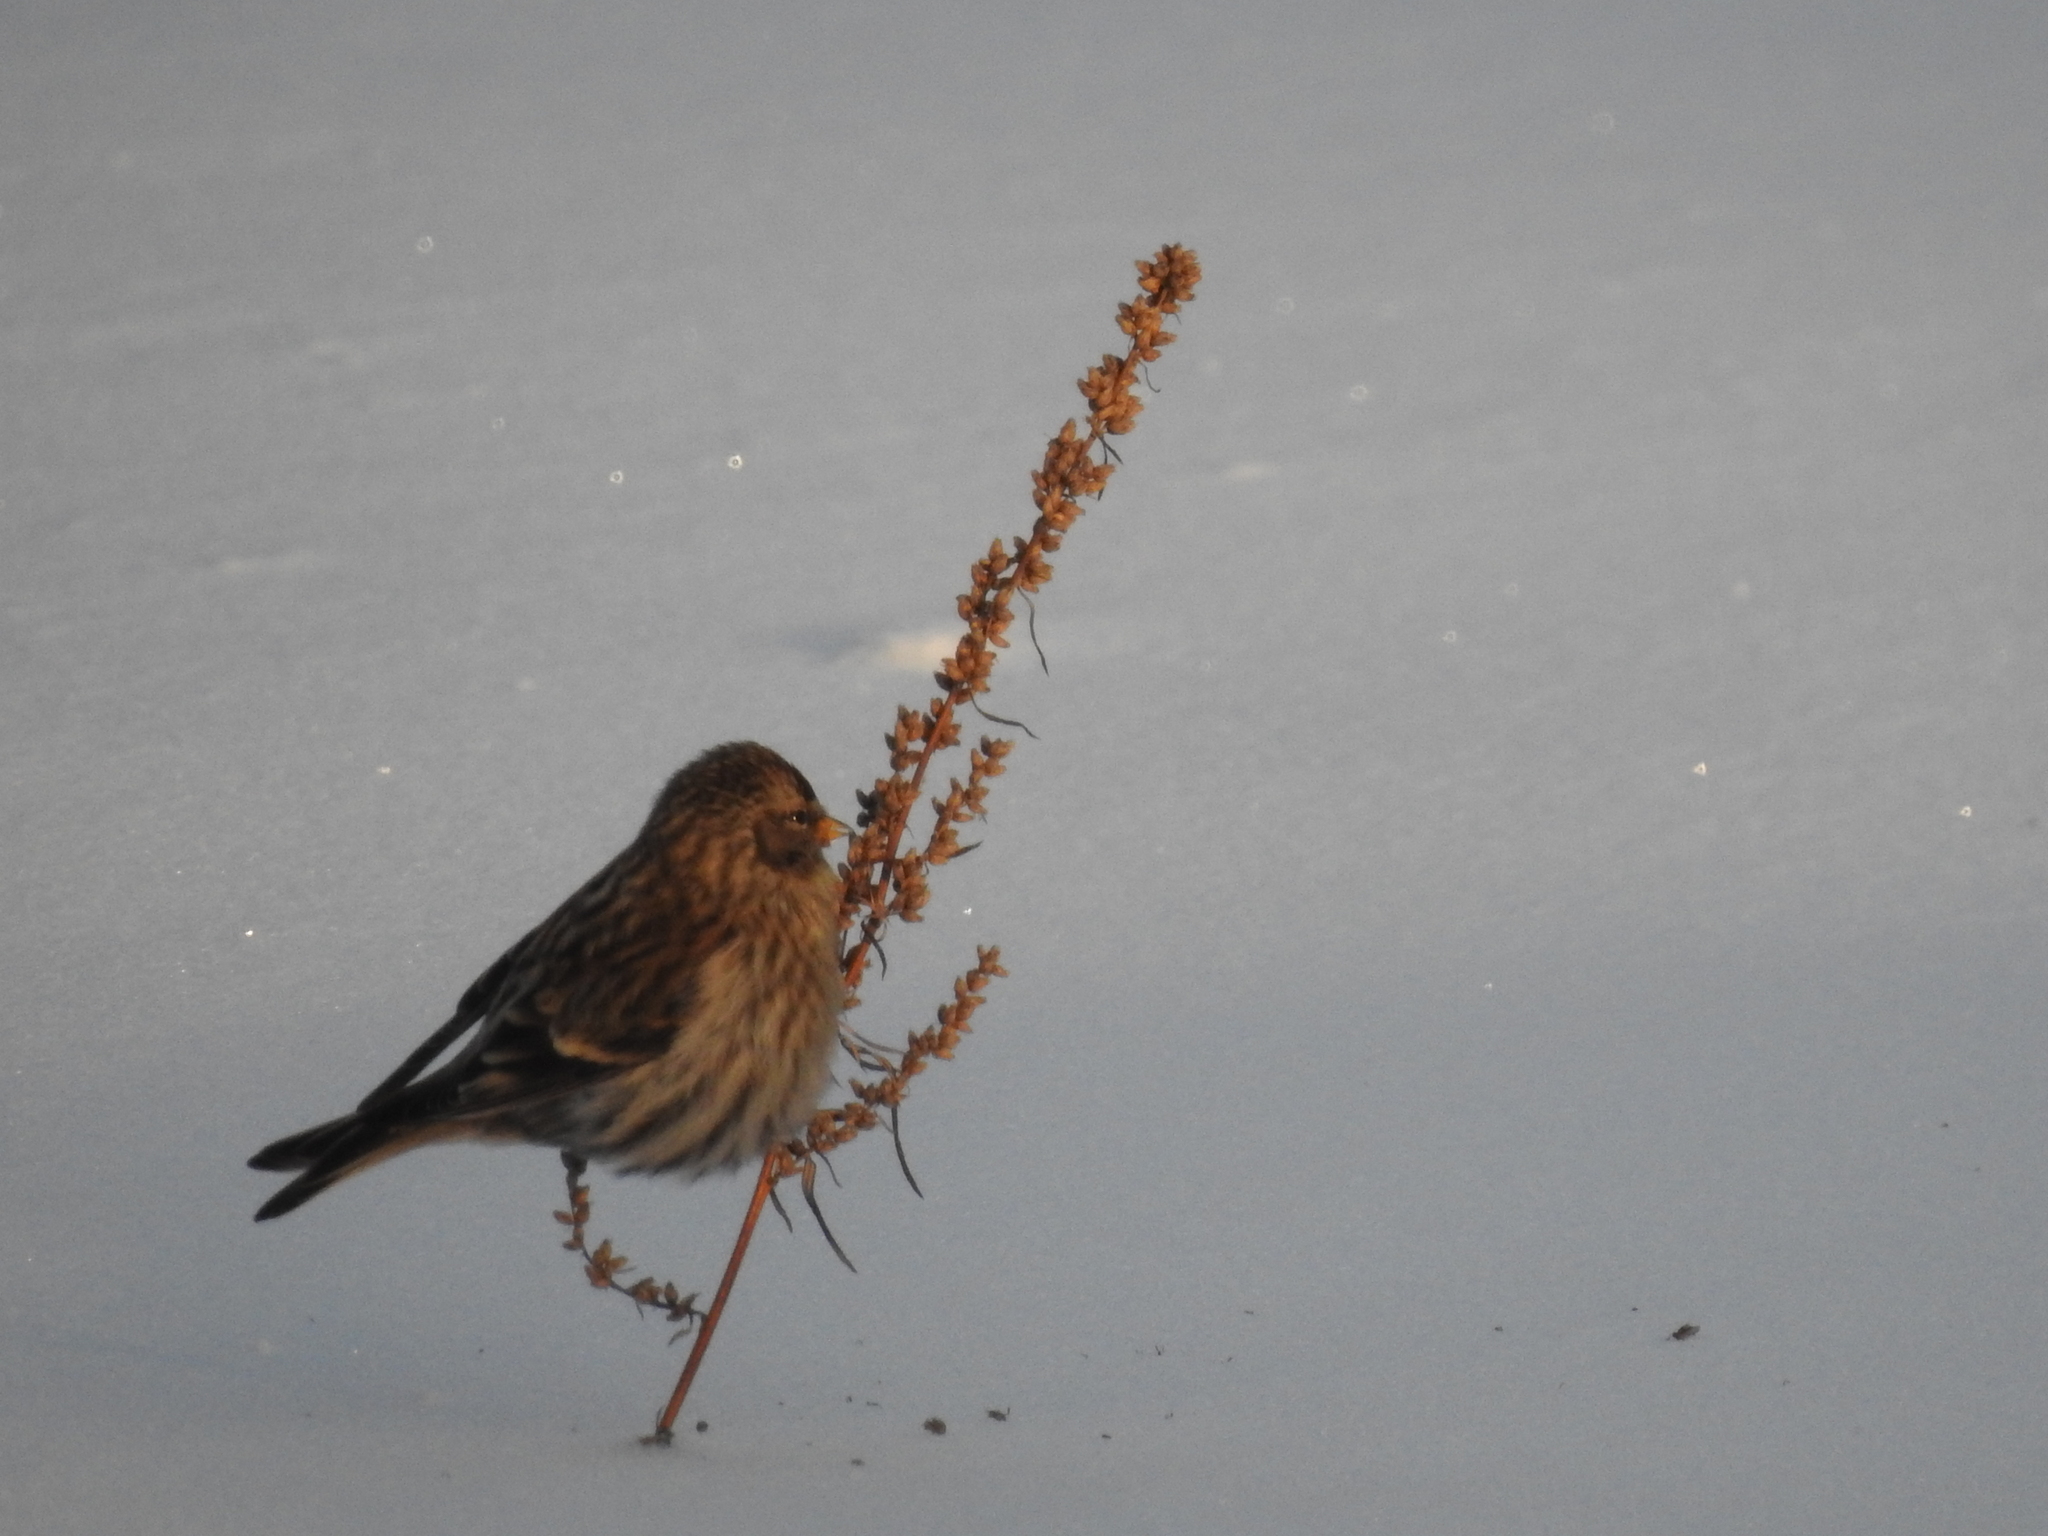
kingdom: Animalia
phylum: Chordata
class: Aves
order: Passeriformes
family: Fringillidae
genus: Acanthis
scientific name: Acanthis flammea
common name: Common redpoll
